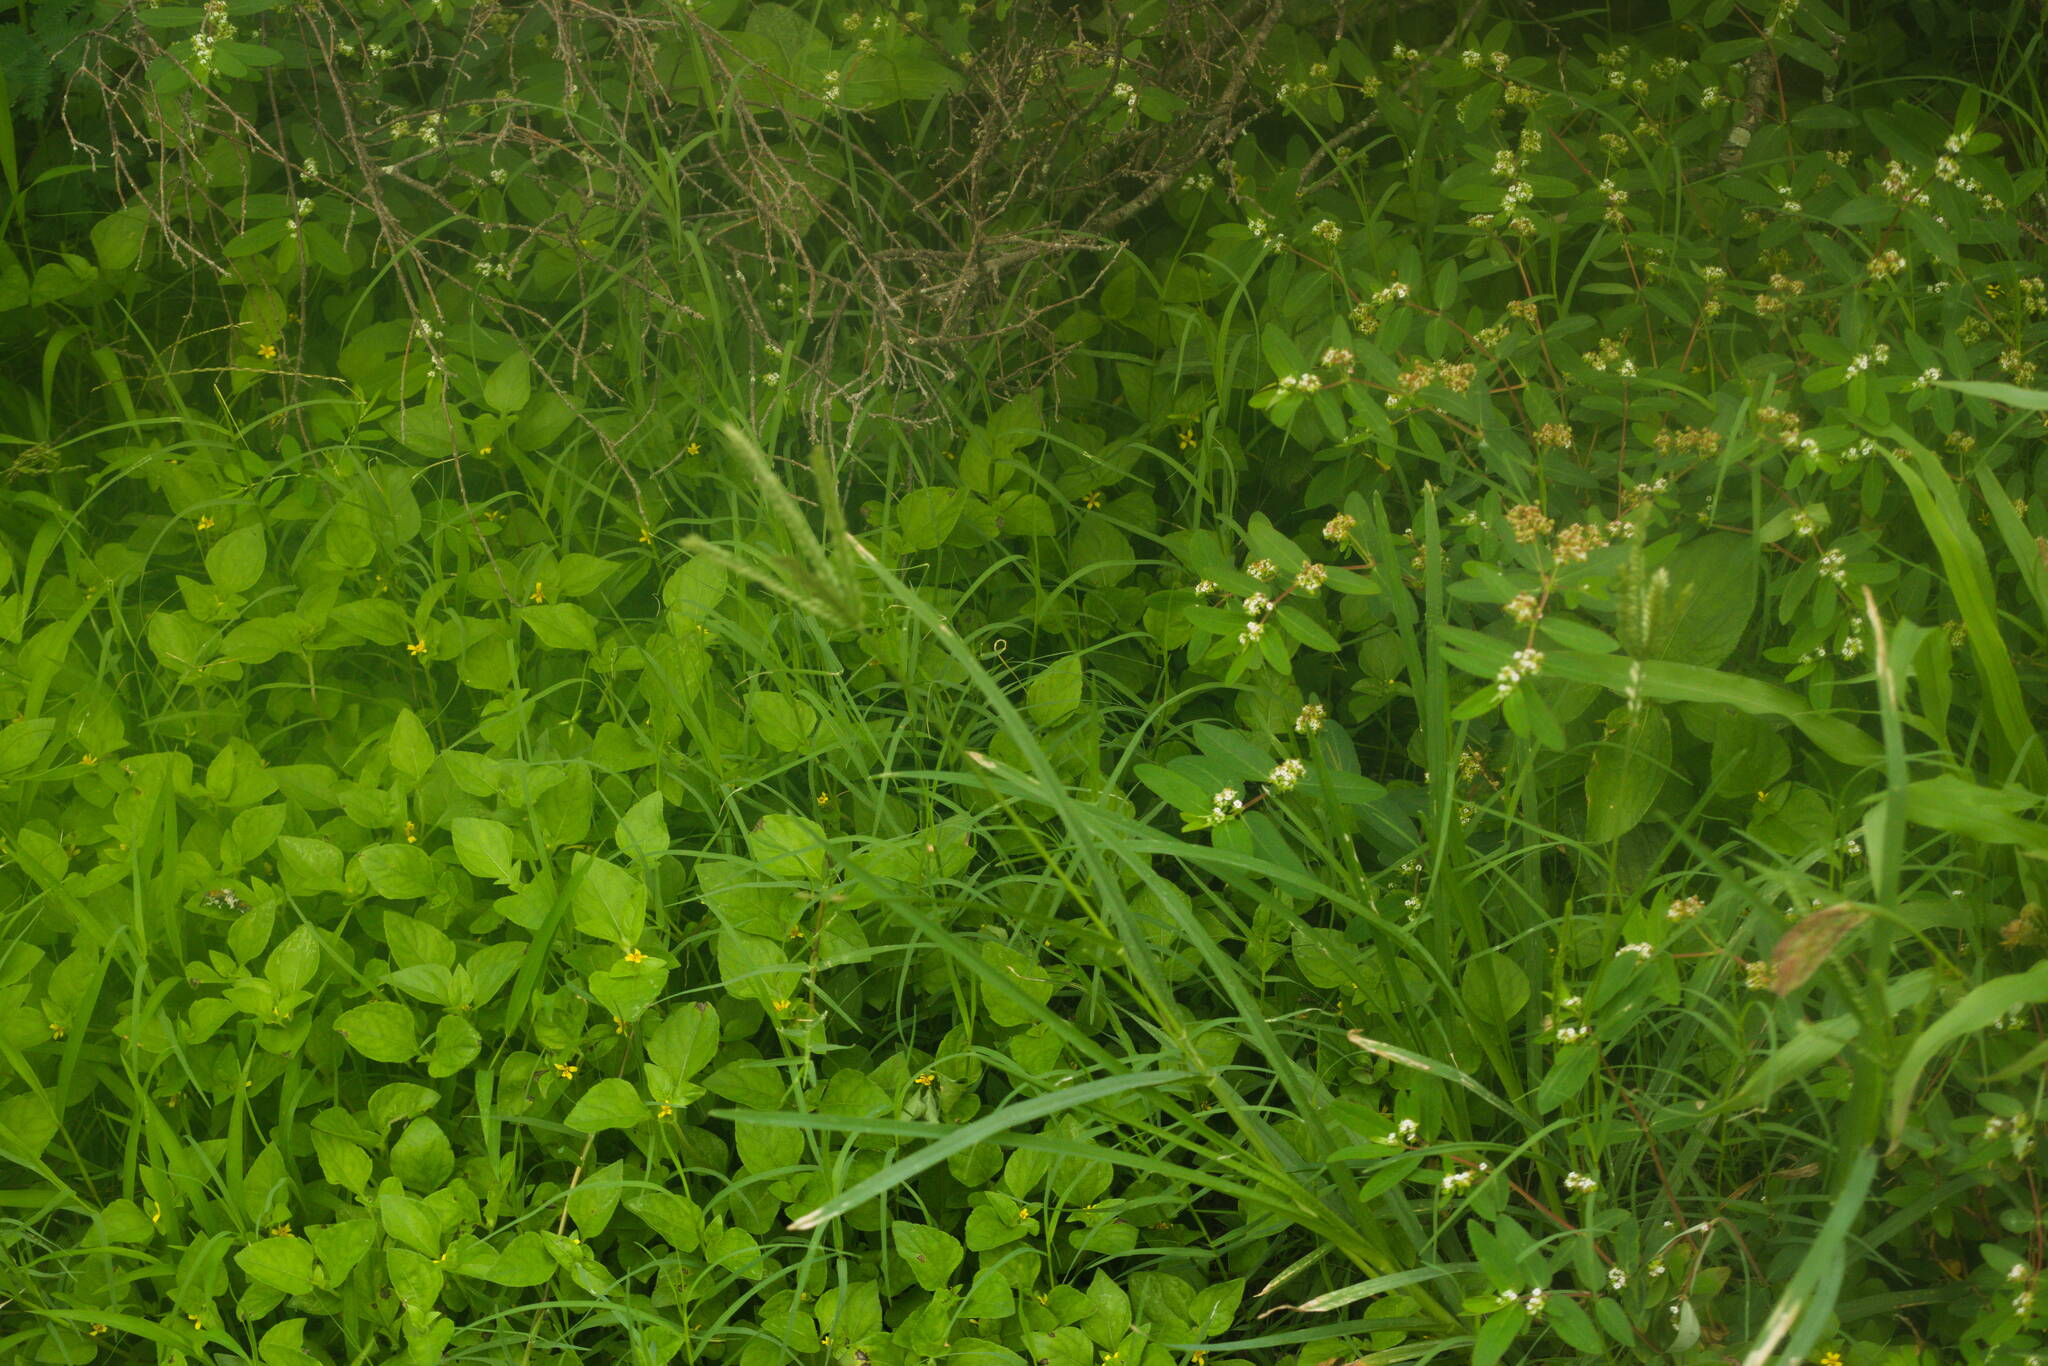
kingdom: Plantae
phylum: Tracheophyta
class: Liliopsida
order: Poales
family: Poaceae
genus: Eleusine
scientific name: Eleusine indica
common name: Yard-grass
